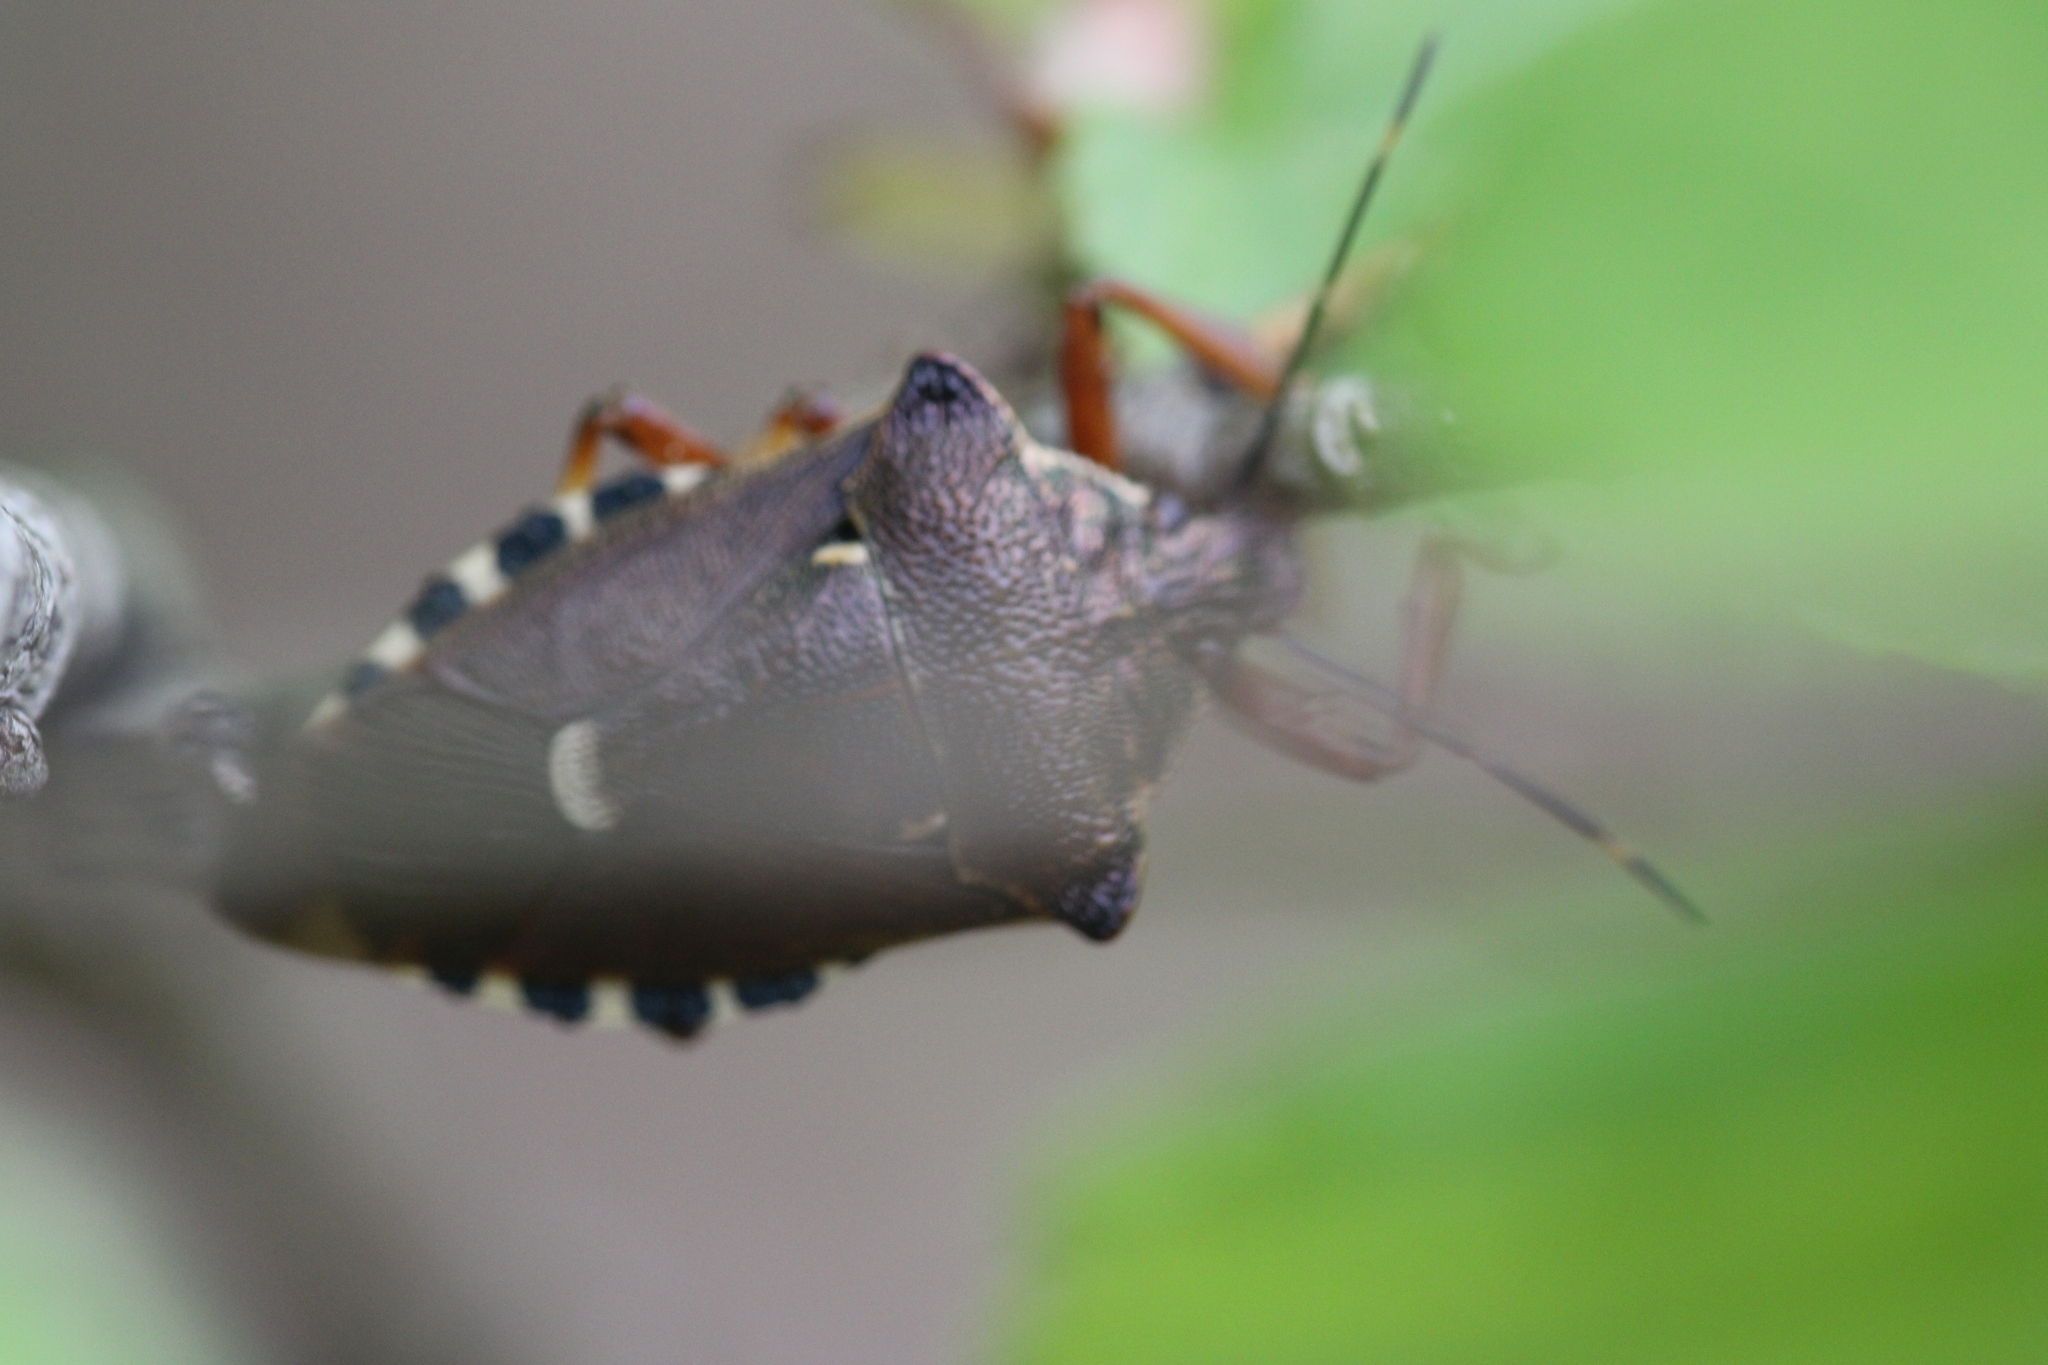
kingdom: Animalia
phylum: Arthropoda
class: Insecta
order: Hemiptera
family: Pentatomidae
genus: Pinthaeus
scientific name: Pinthaeus sanguinipes
